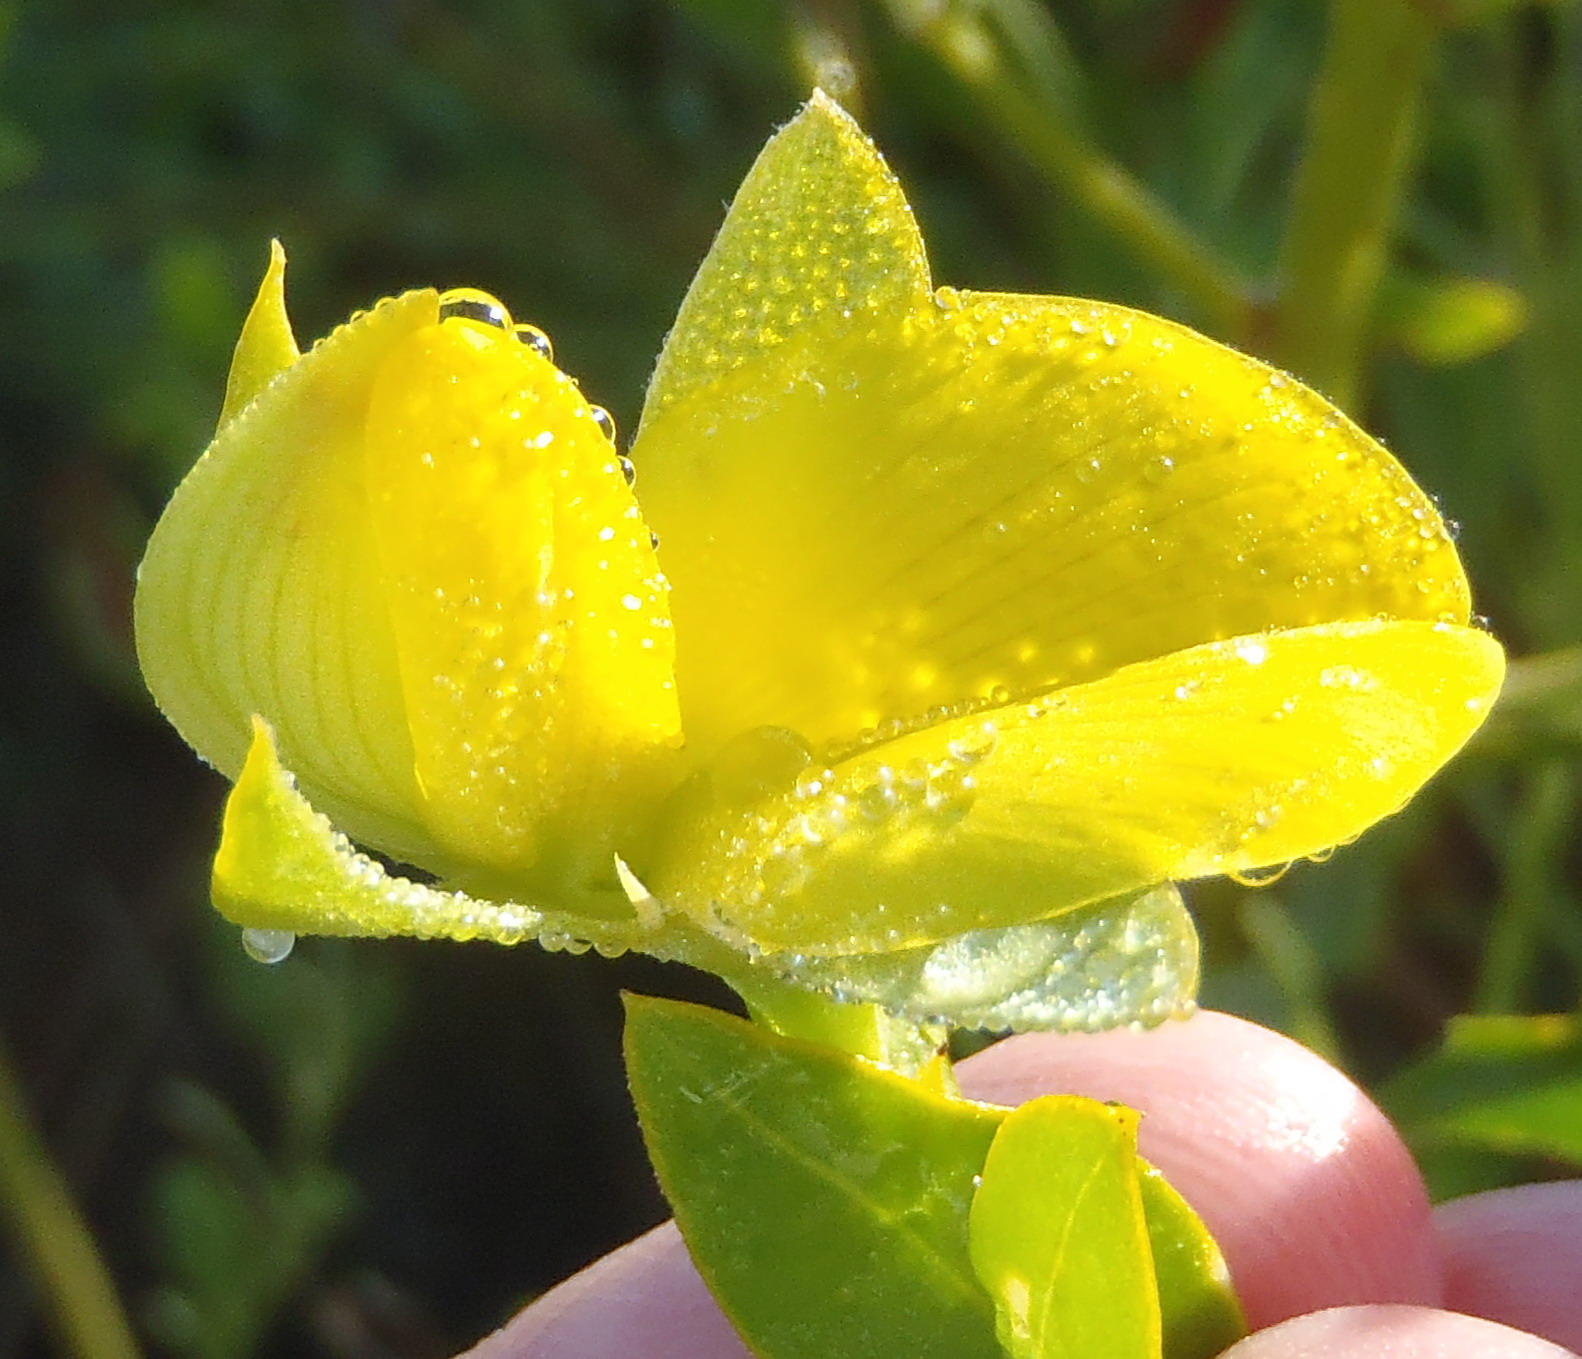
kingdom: Plantae
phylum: Tracheophyta
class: Magnoliopsida
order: Fabales
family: Fabaceae
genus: Rafnia
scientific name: Rafnia vlokii
